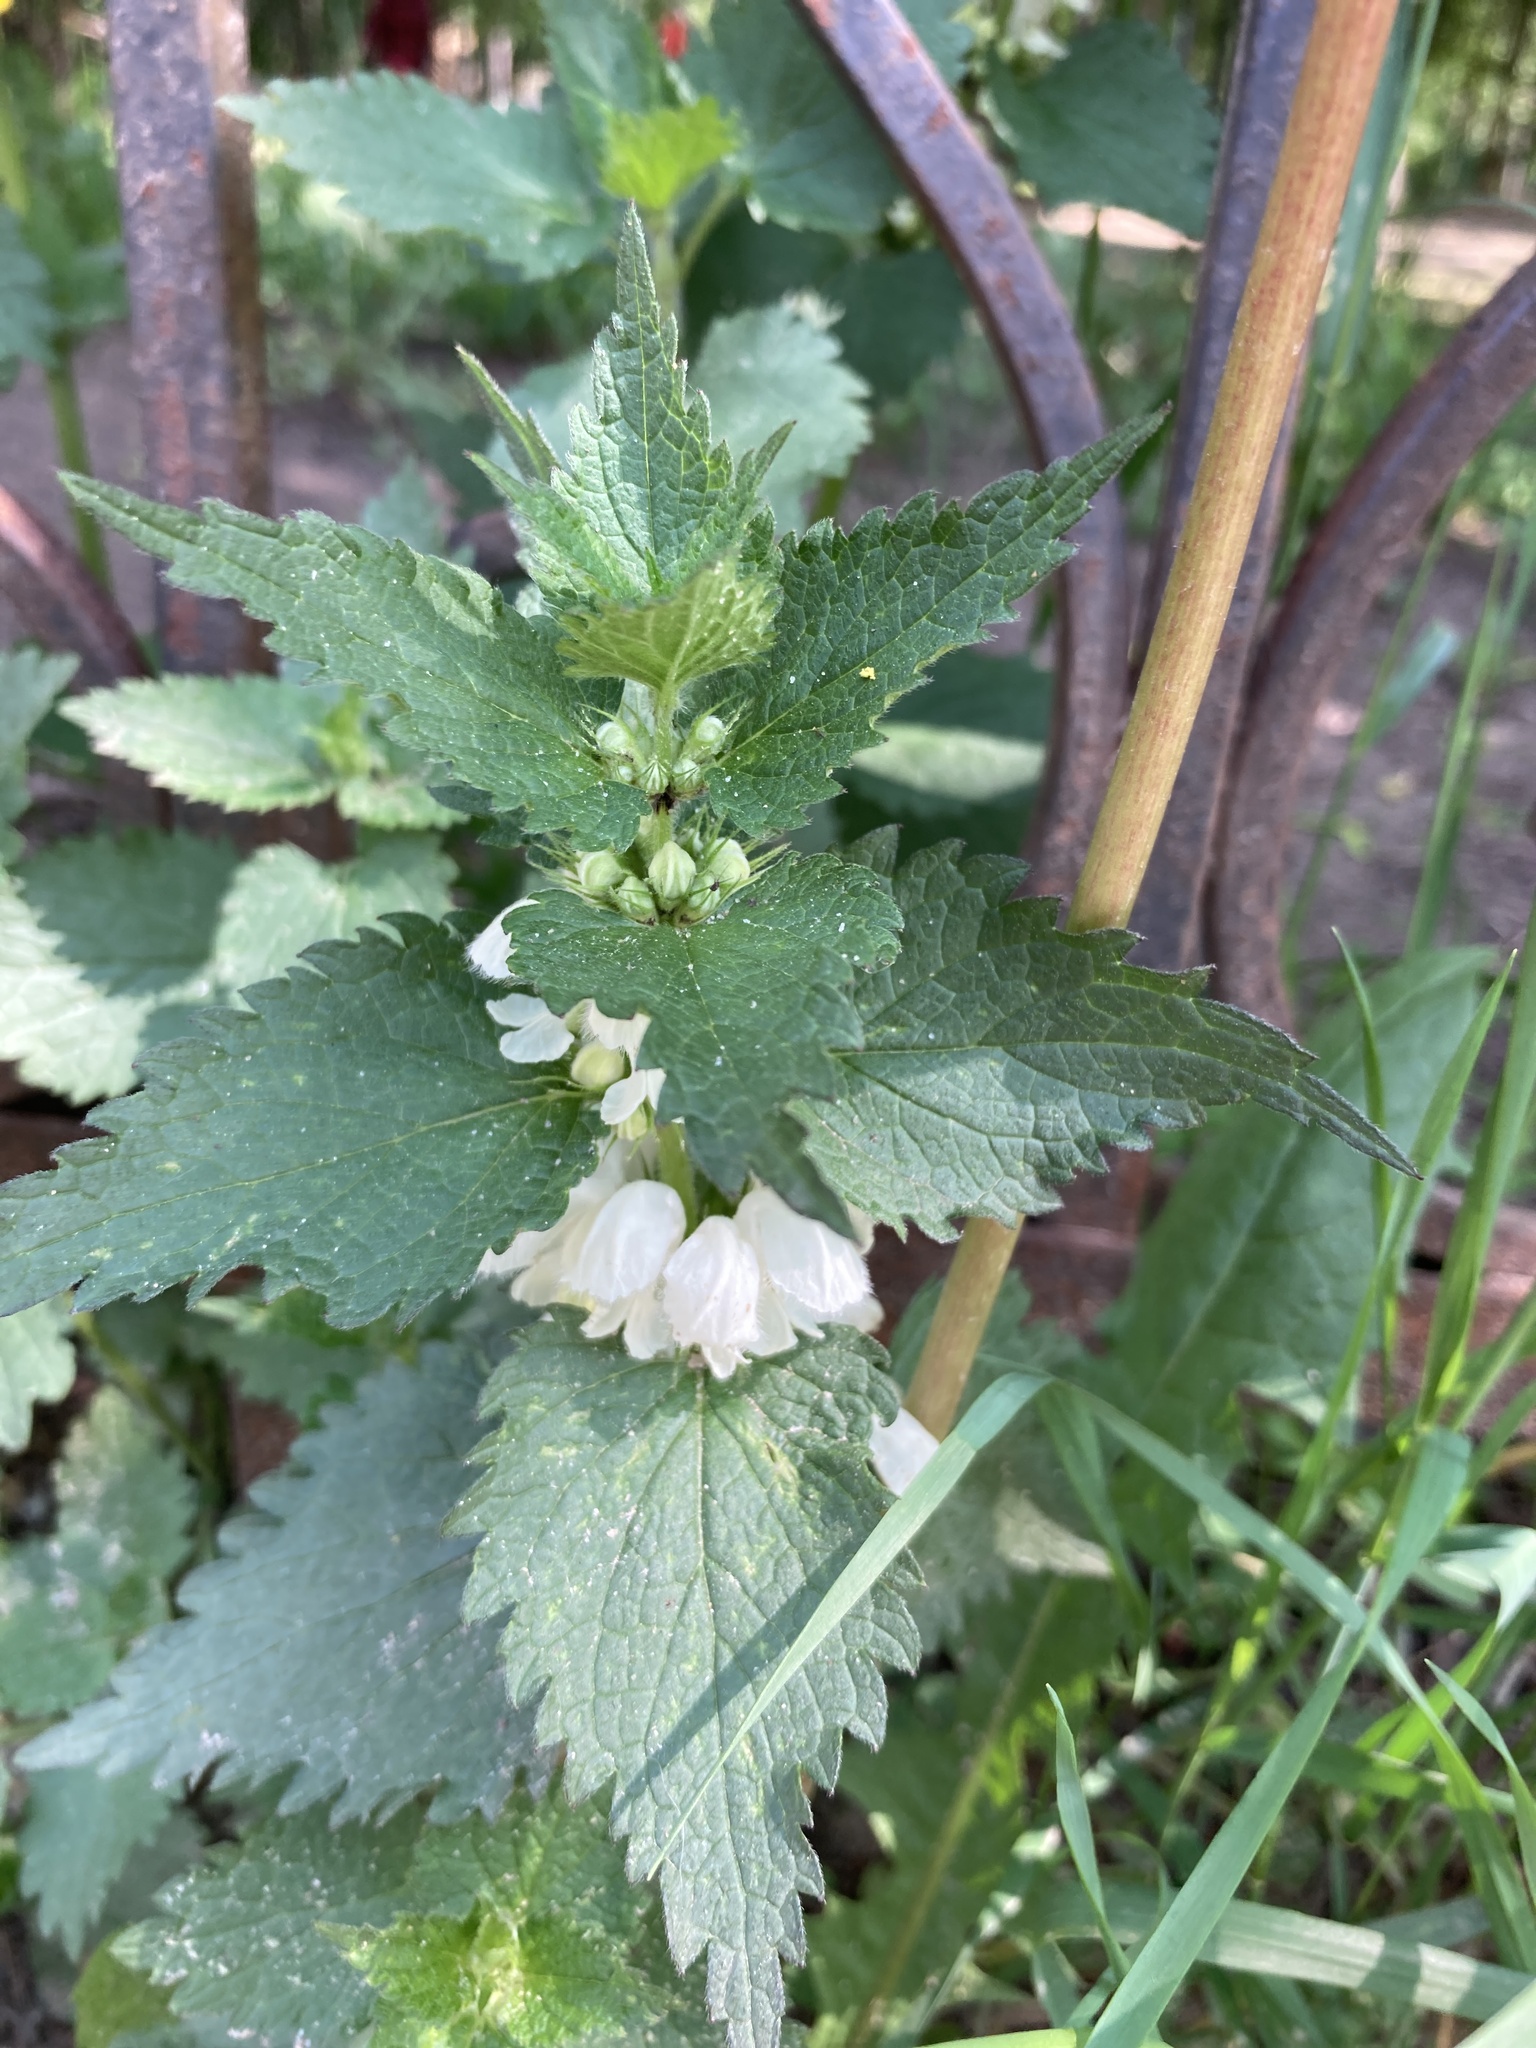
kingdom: Plantae
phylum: Tracheophyta
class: Magnoliopsida
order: Lamiales
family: Lamiaceae
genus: Lamium
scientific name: Lamium album
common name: White dead-nettle
